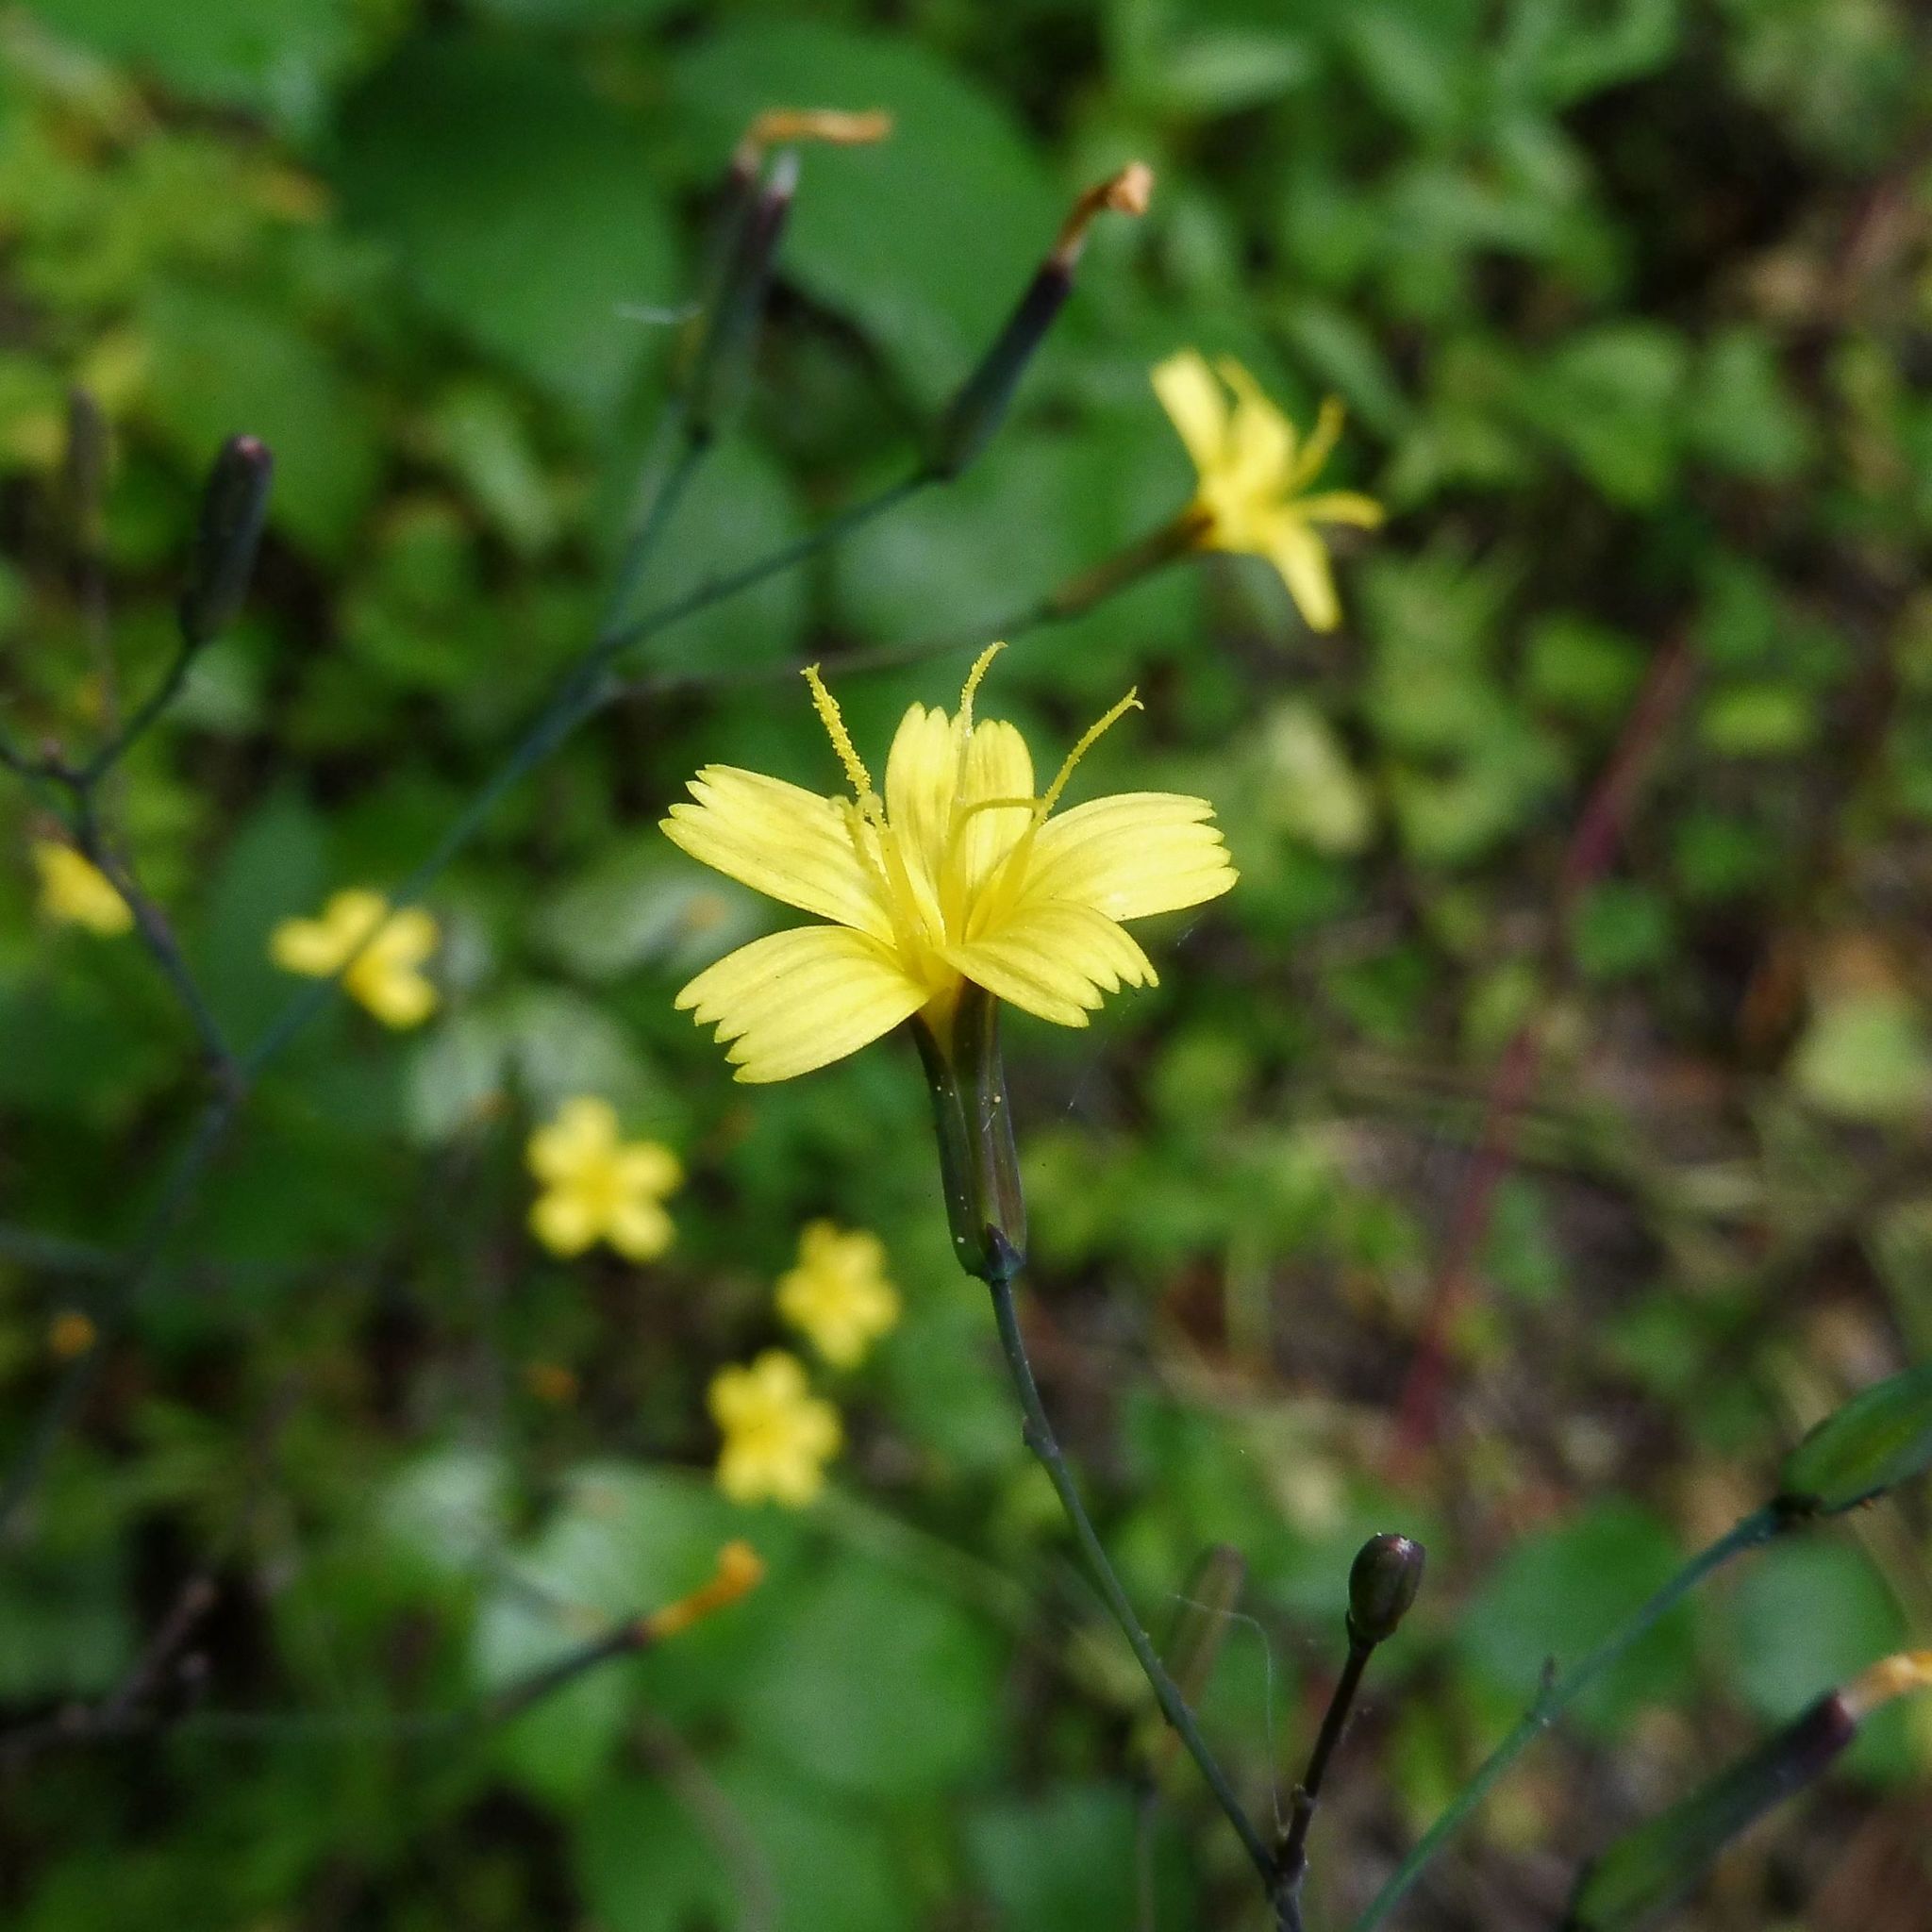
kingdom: Plantae
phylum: Tracheophyta
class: Magnoliopsida
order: Asterales
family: Asteraceae
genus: Mycelis
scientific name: Mycelis muralis
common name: Wall lettuce
